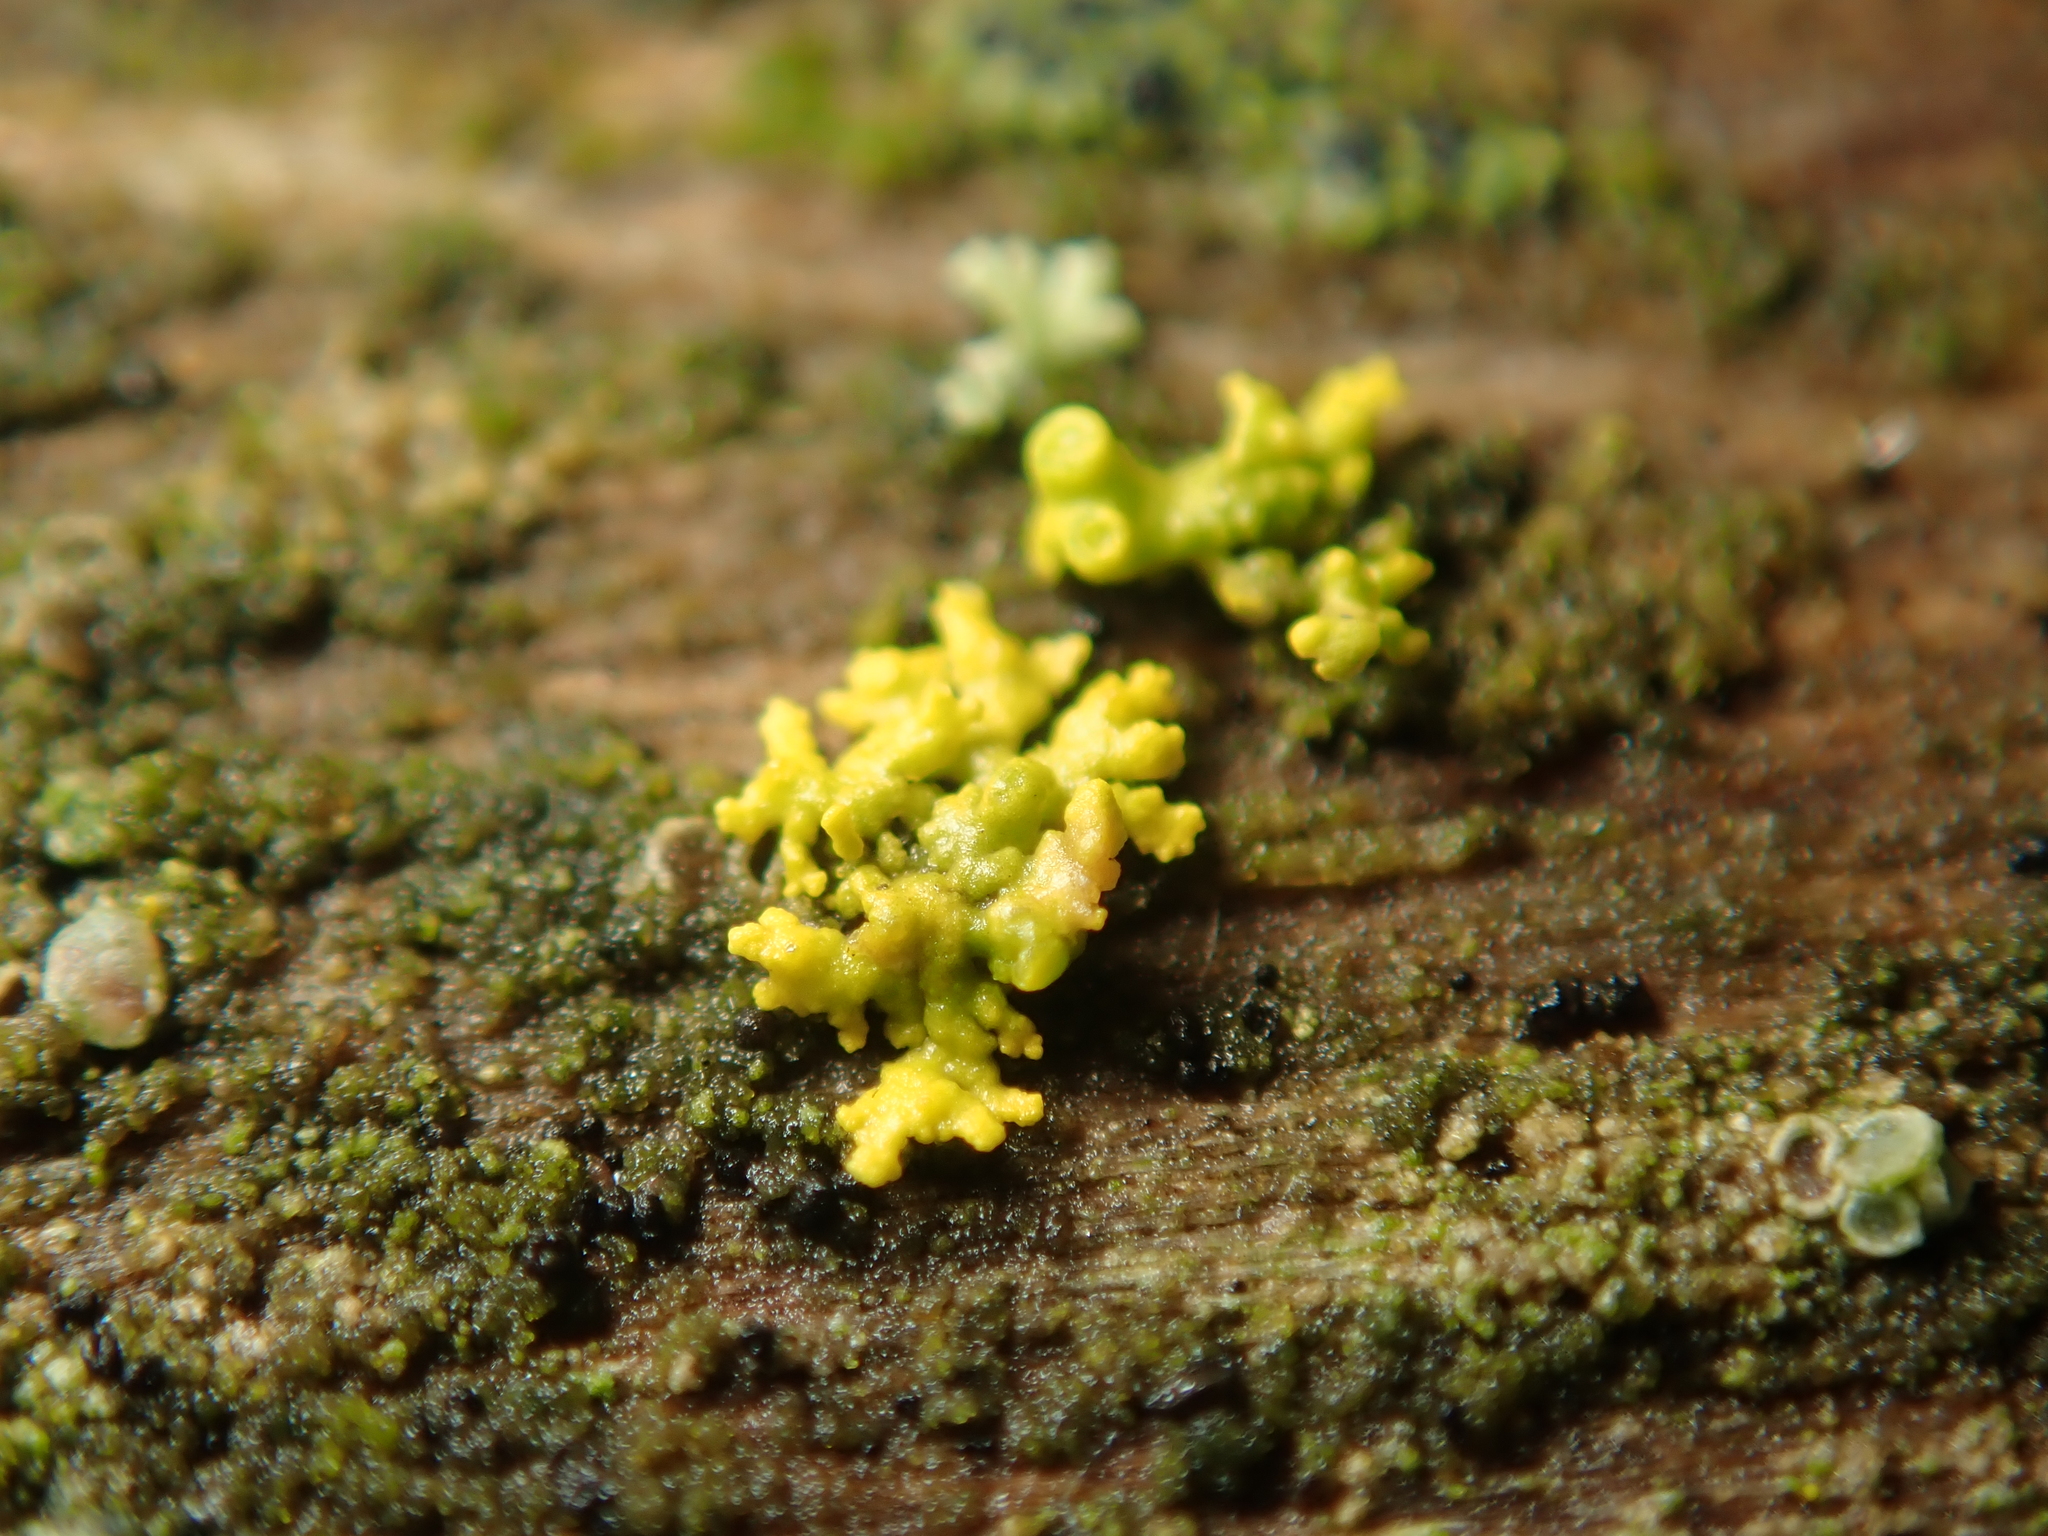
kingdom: Fungi
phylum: Ascomycota
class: Lecanoromycetes
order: Teloschistales
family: Teloschistaceae
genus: Polycauliona
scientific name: Polycauliona polycarpa
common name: Pin-cushion sunburst lichen
